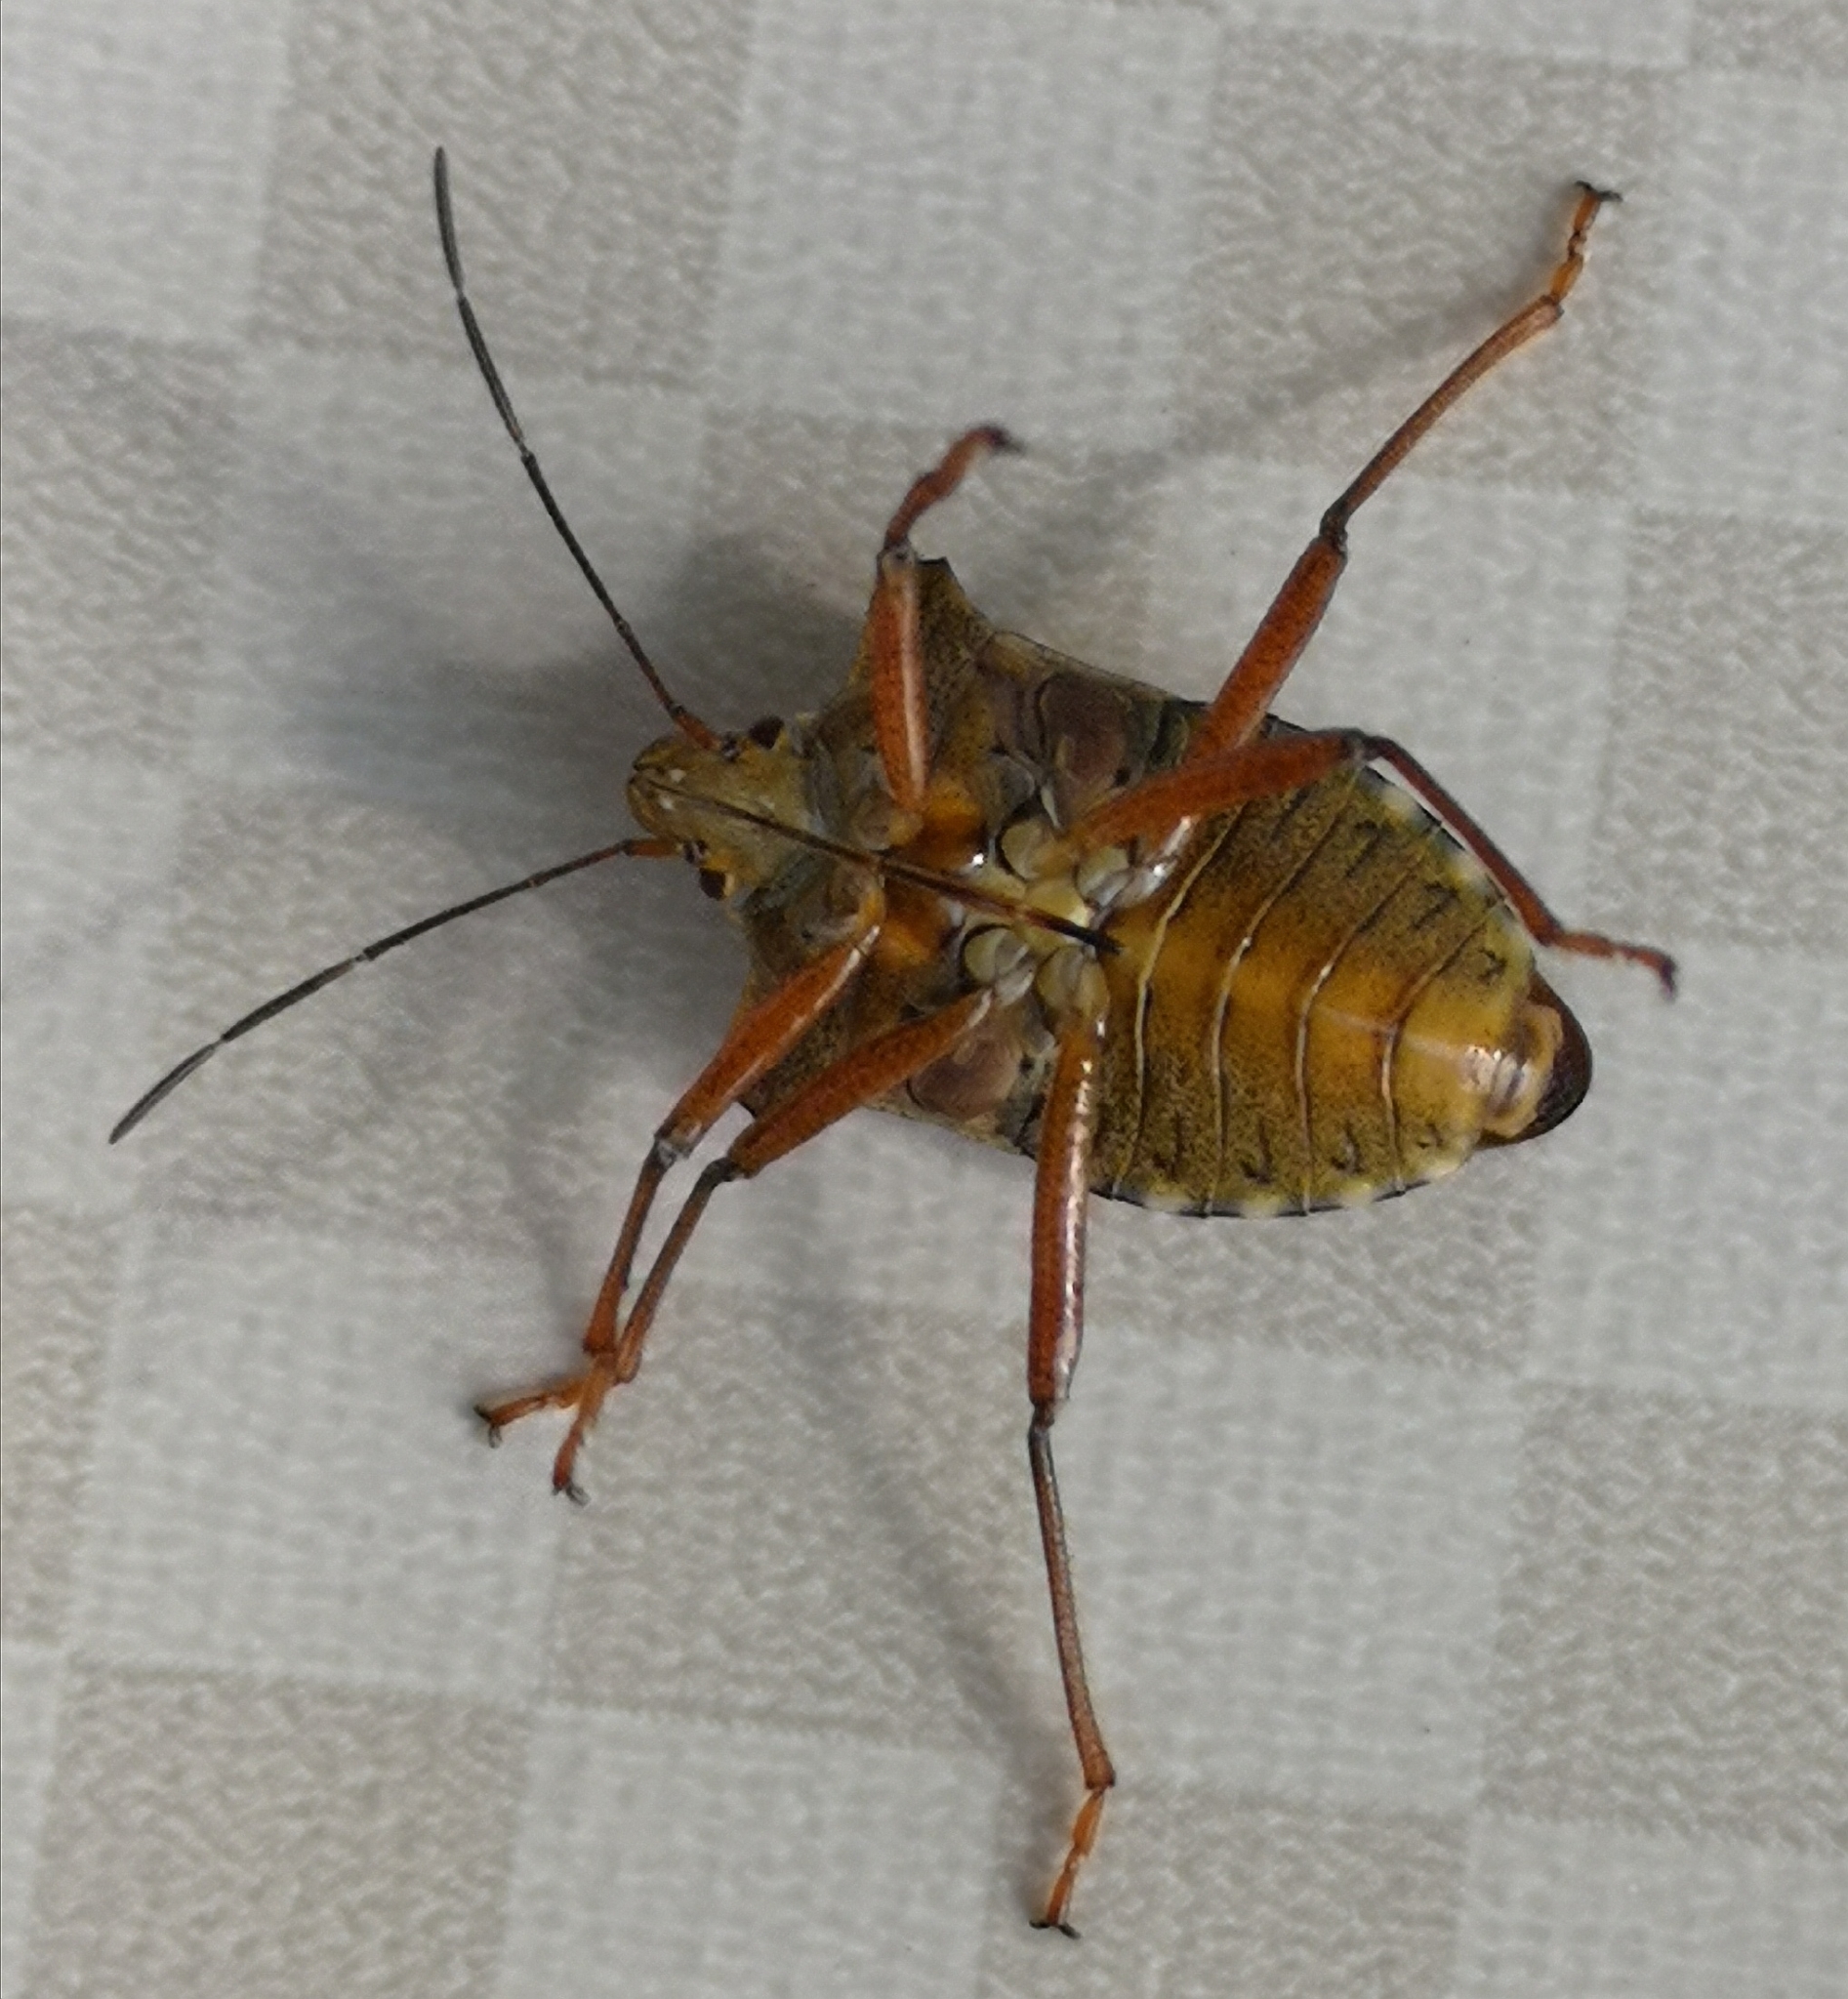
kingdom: Animalia
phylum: Arthropoda
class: Insecta
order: Hemiptera
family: Pentatomidae
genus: Pentatoma
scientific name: Pentatoma rufipes
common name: Forest bug
